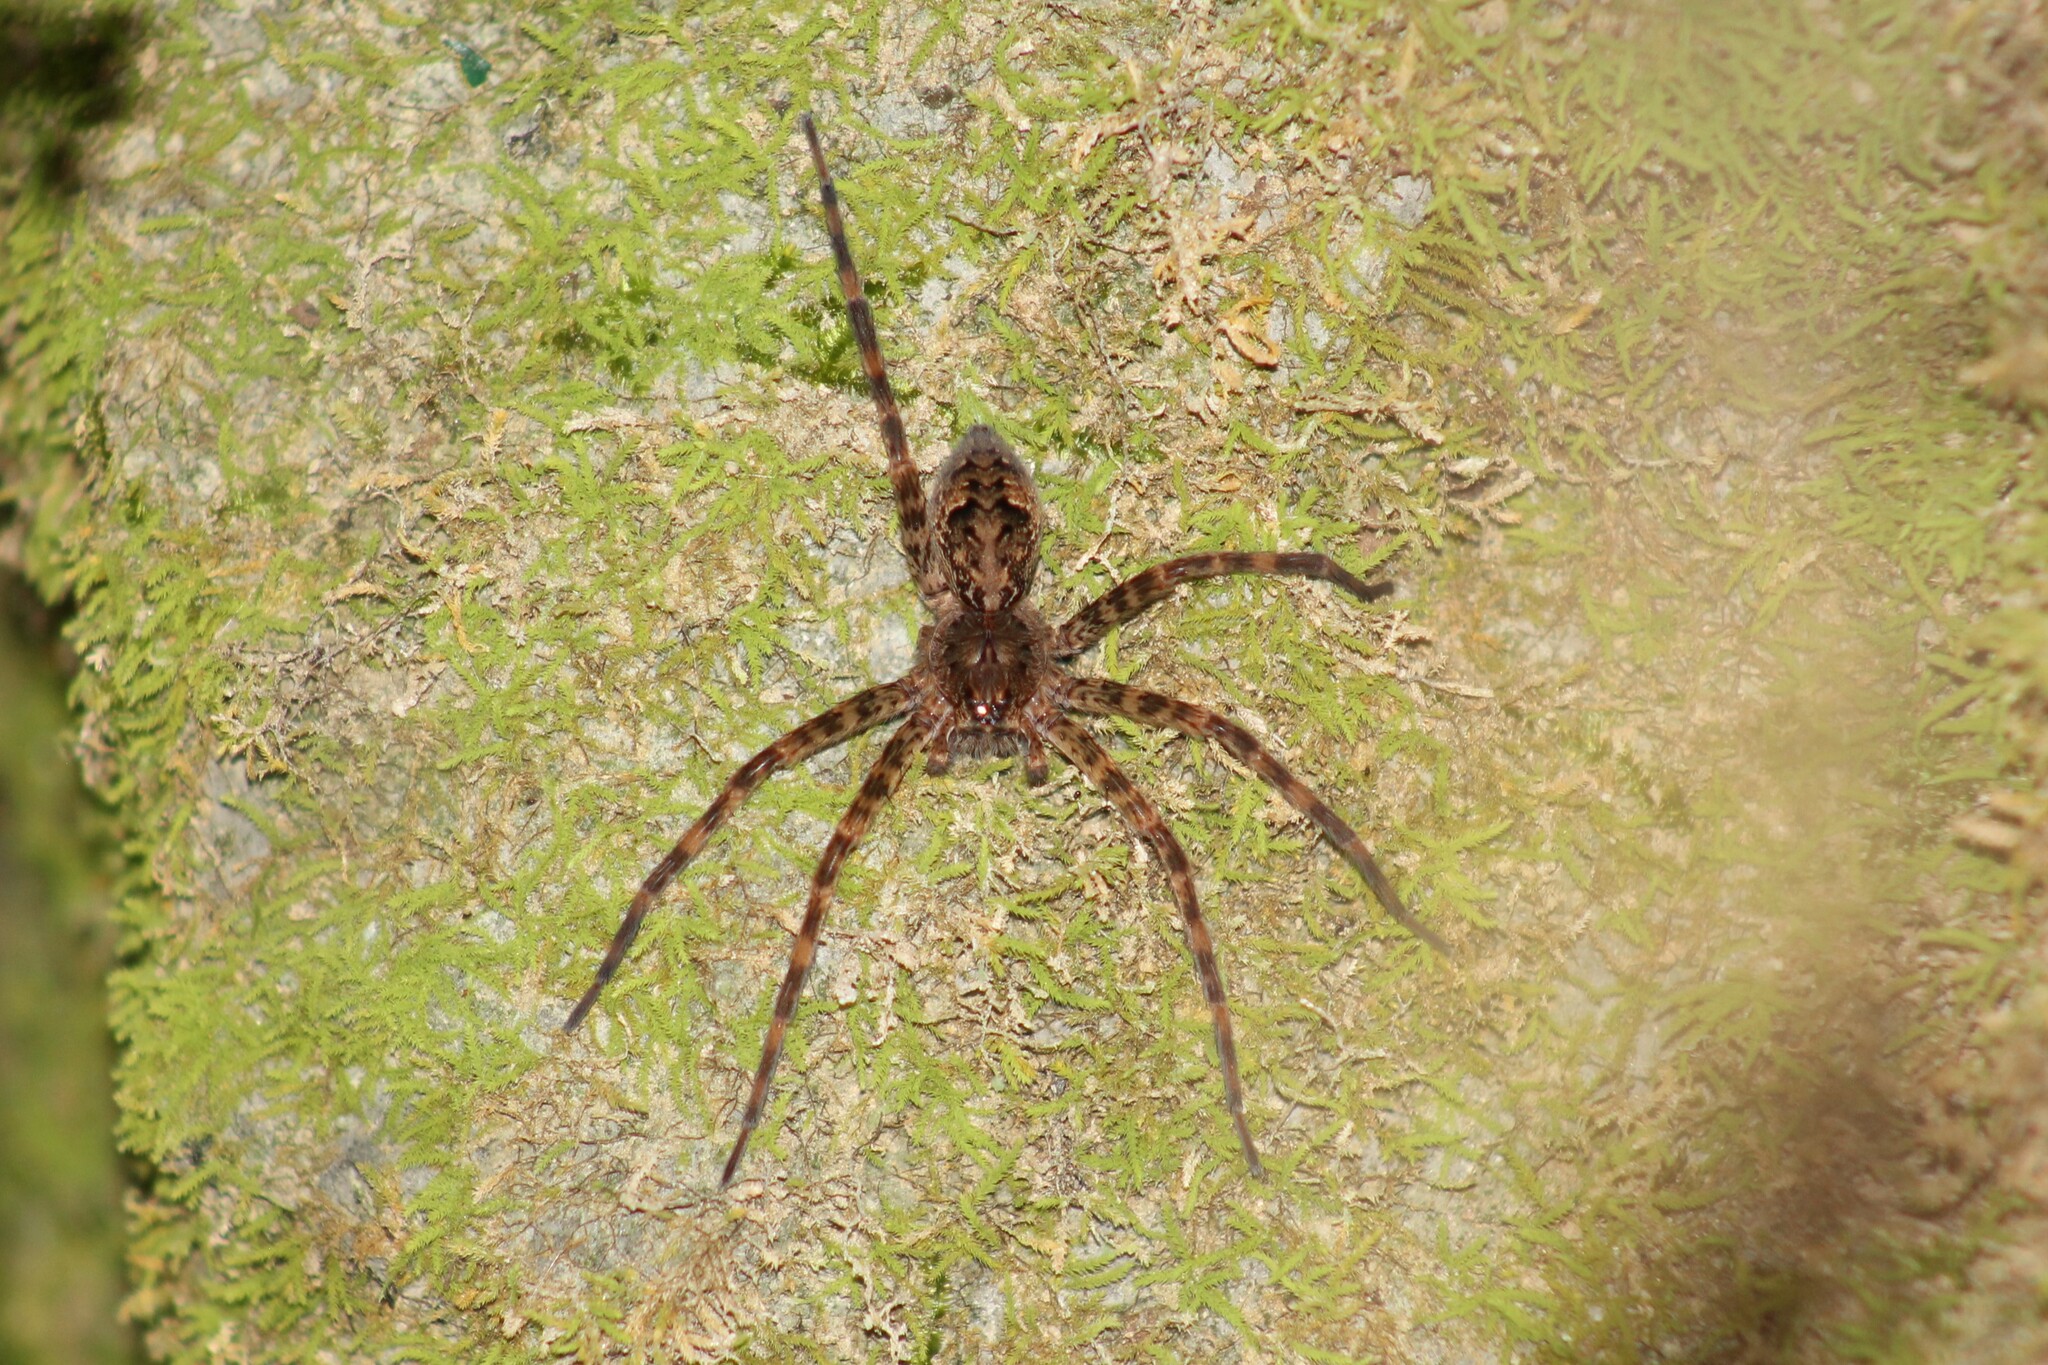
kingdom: Animalia
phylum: Arthropoda
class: Arachnida
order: Araneae
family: Pisauridae
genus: Dolomedes
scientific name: Dolomedes tenebrosus
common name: Dark fishing spider
